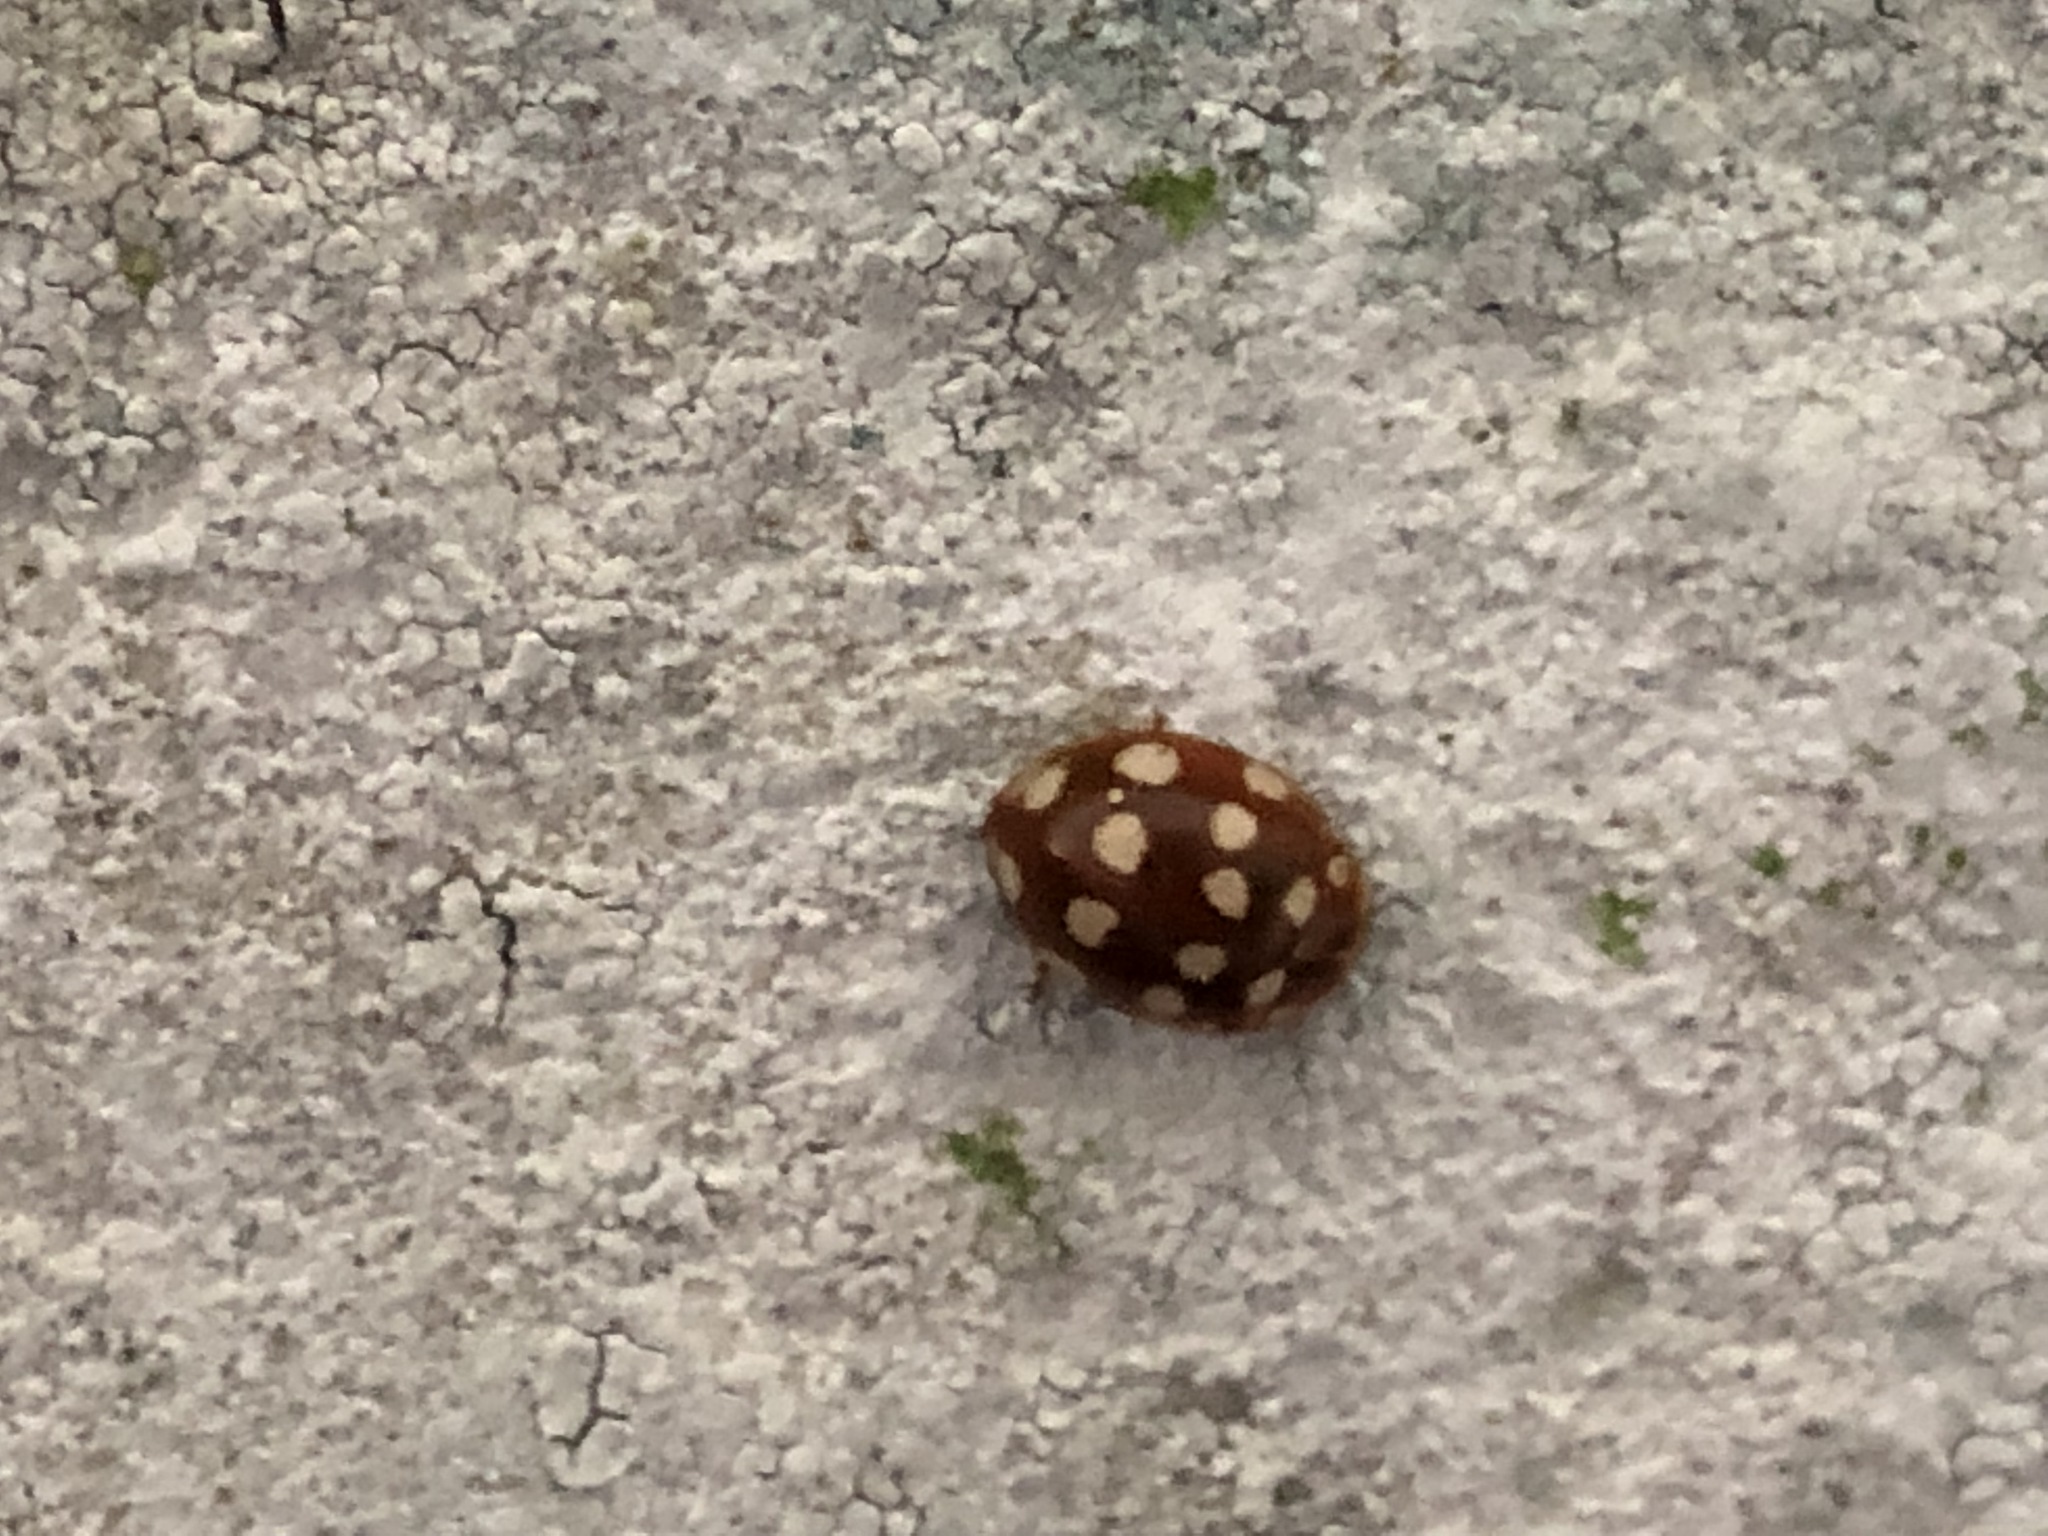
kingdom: Animalia
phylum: Arthropoda
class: Insecta
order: Coleoptera
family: Coccinellidae
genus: Calvia
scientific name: Calvia quatuordecimguttata
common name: Cream-spot ladybird
